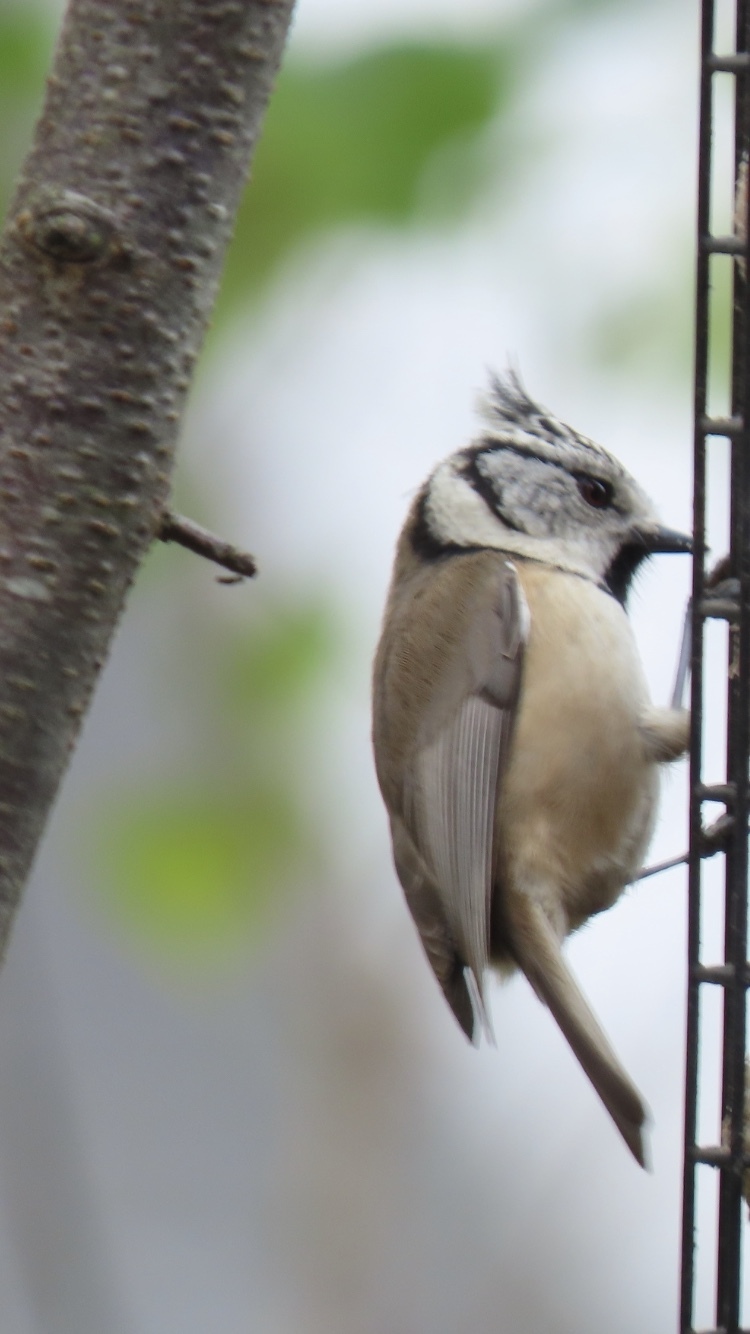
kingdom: Animalia
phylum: Chordata
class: Aves
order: Passeriformes
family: Paridae
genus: Lophophanes
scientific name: Lophophanes cristatus
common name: European crested tit
